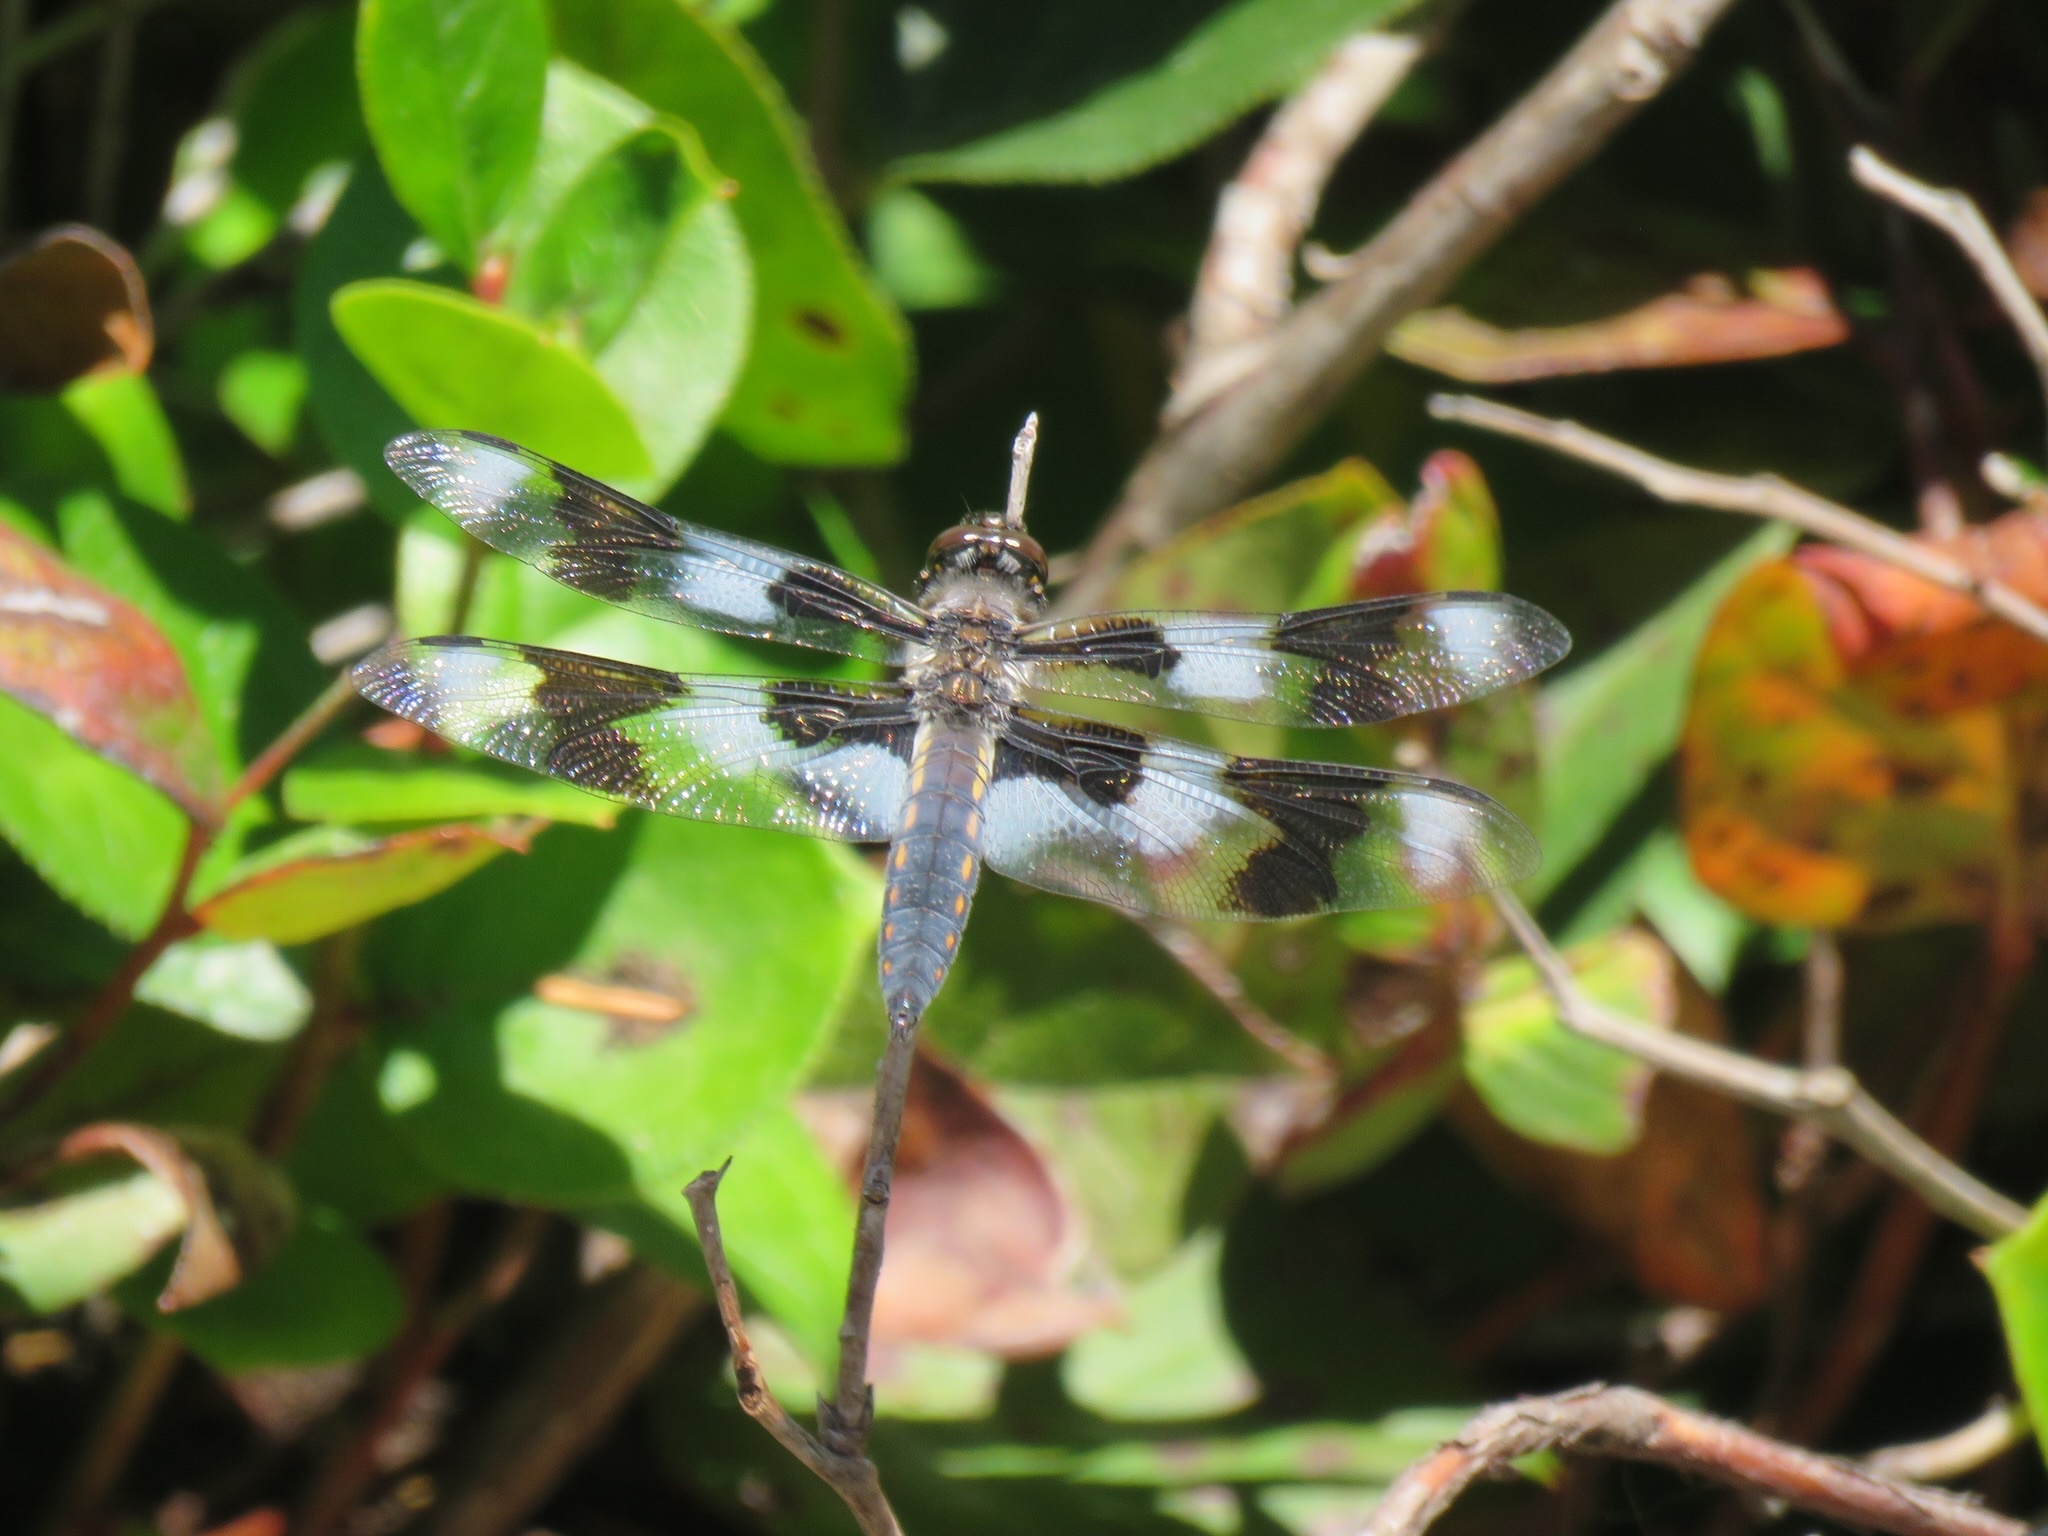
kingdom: Animalia
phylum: Arthropoda
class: Insecta
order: Odonata
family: Libellulidae
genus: Libellula
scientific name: Libellula forensis
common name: Eight-spotted skimmer
